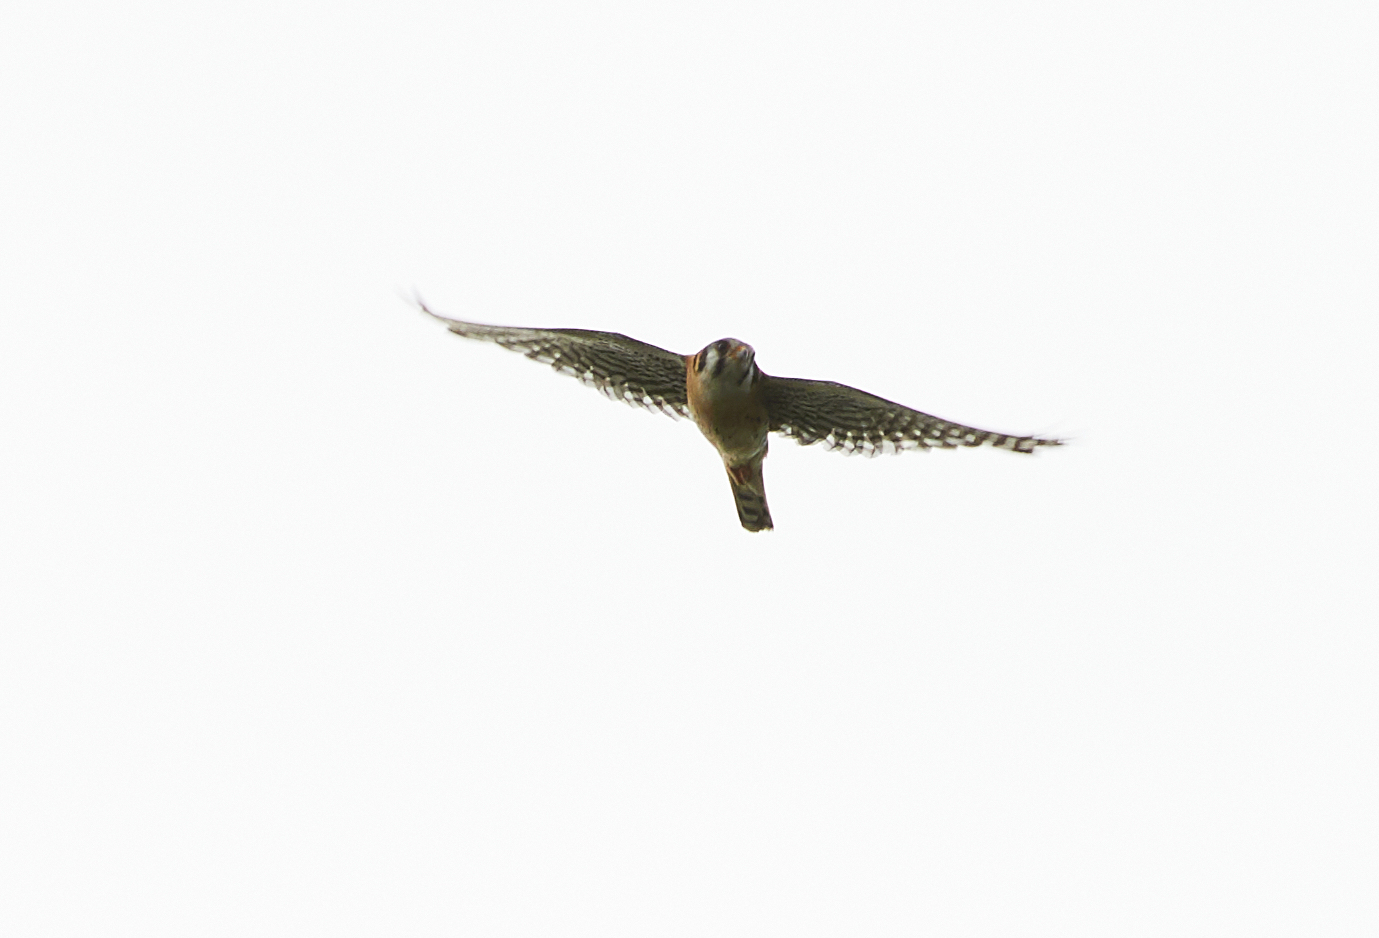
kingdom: Animalia
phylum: Chordata
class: Aves
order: Falconiformes
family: Falconidae
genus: Falco
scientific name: Falco sparverius
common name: American kestrel
